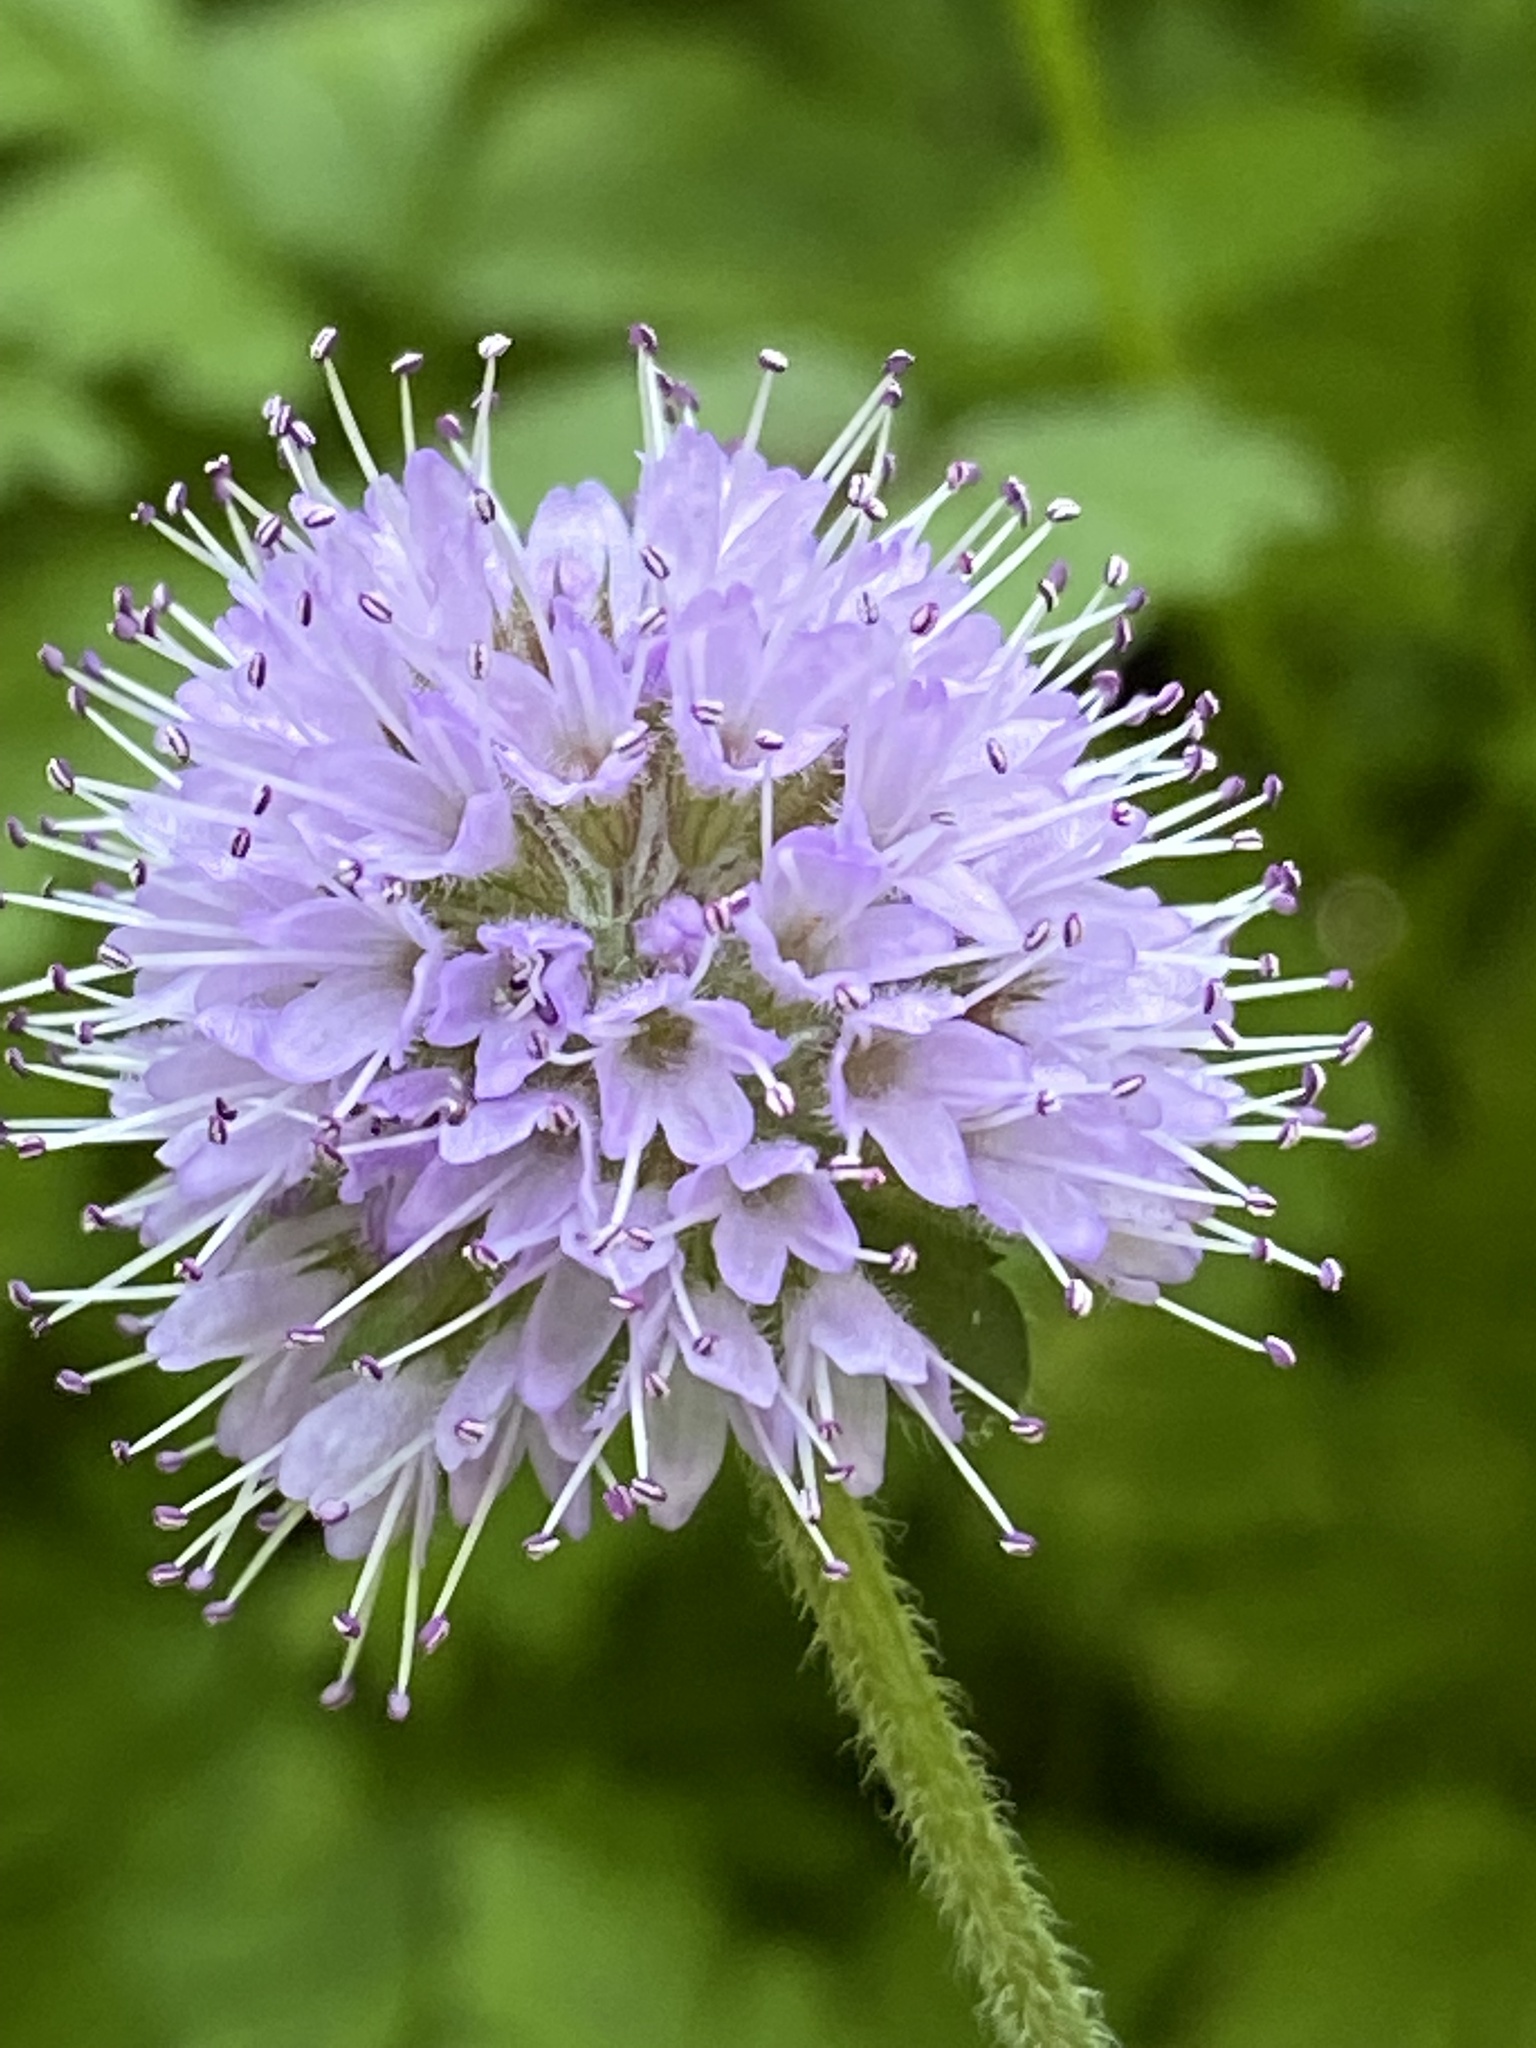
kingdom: Plantae
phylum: Tracheophyta
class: Magnoliopsida
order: Lamiales
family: Lamiaceae
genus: Mentha
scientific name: Mentha aquatica
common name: Water mint
